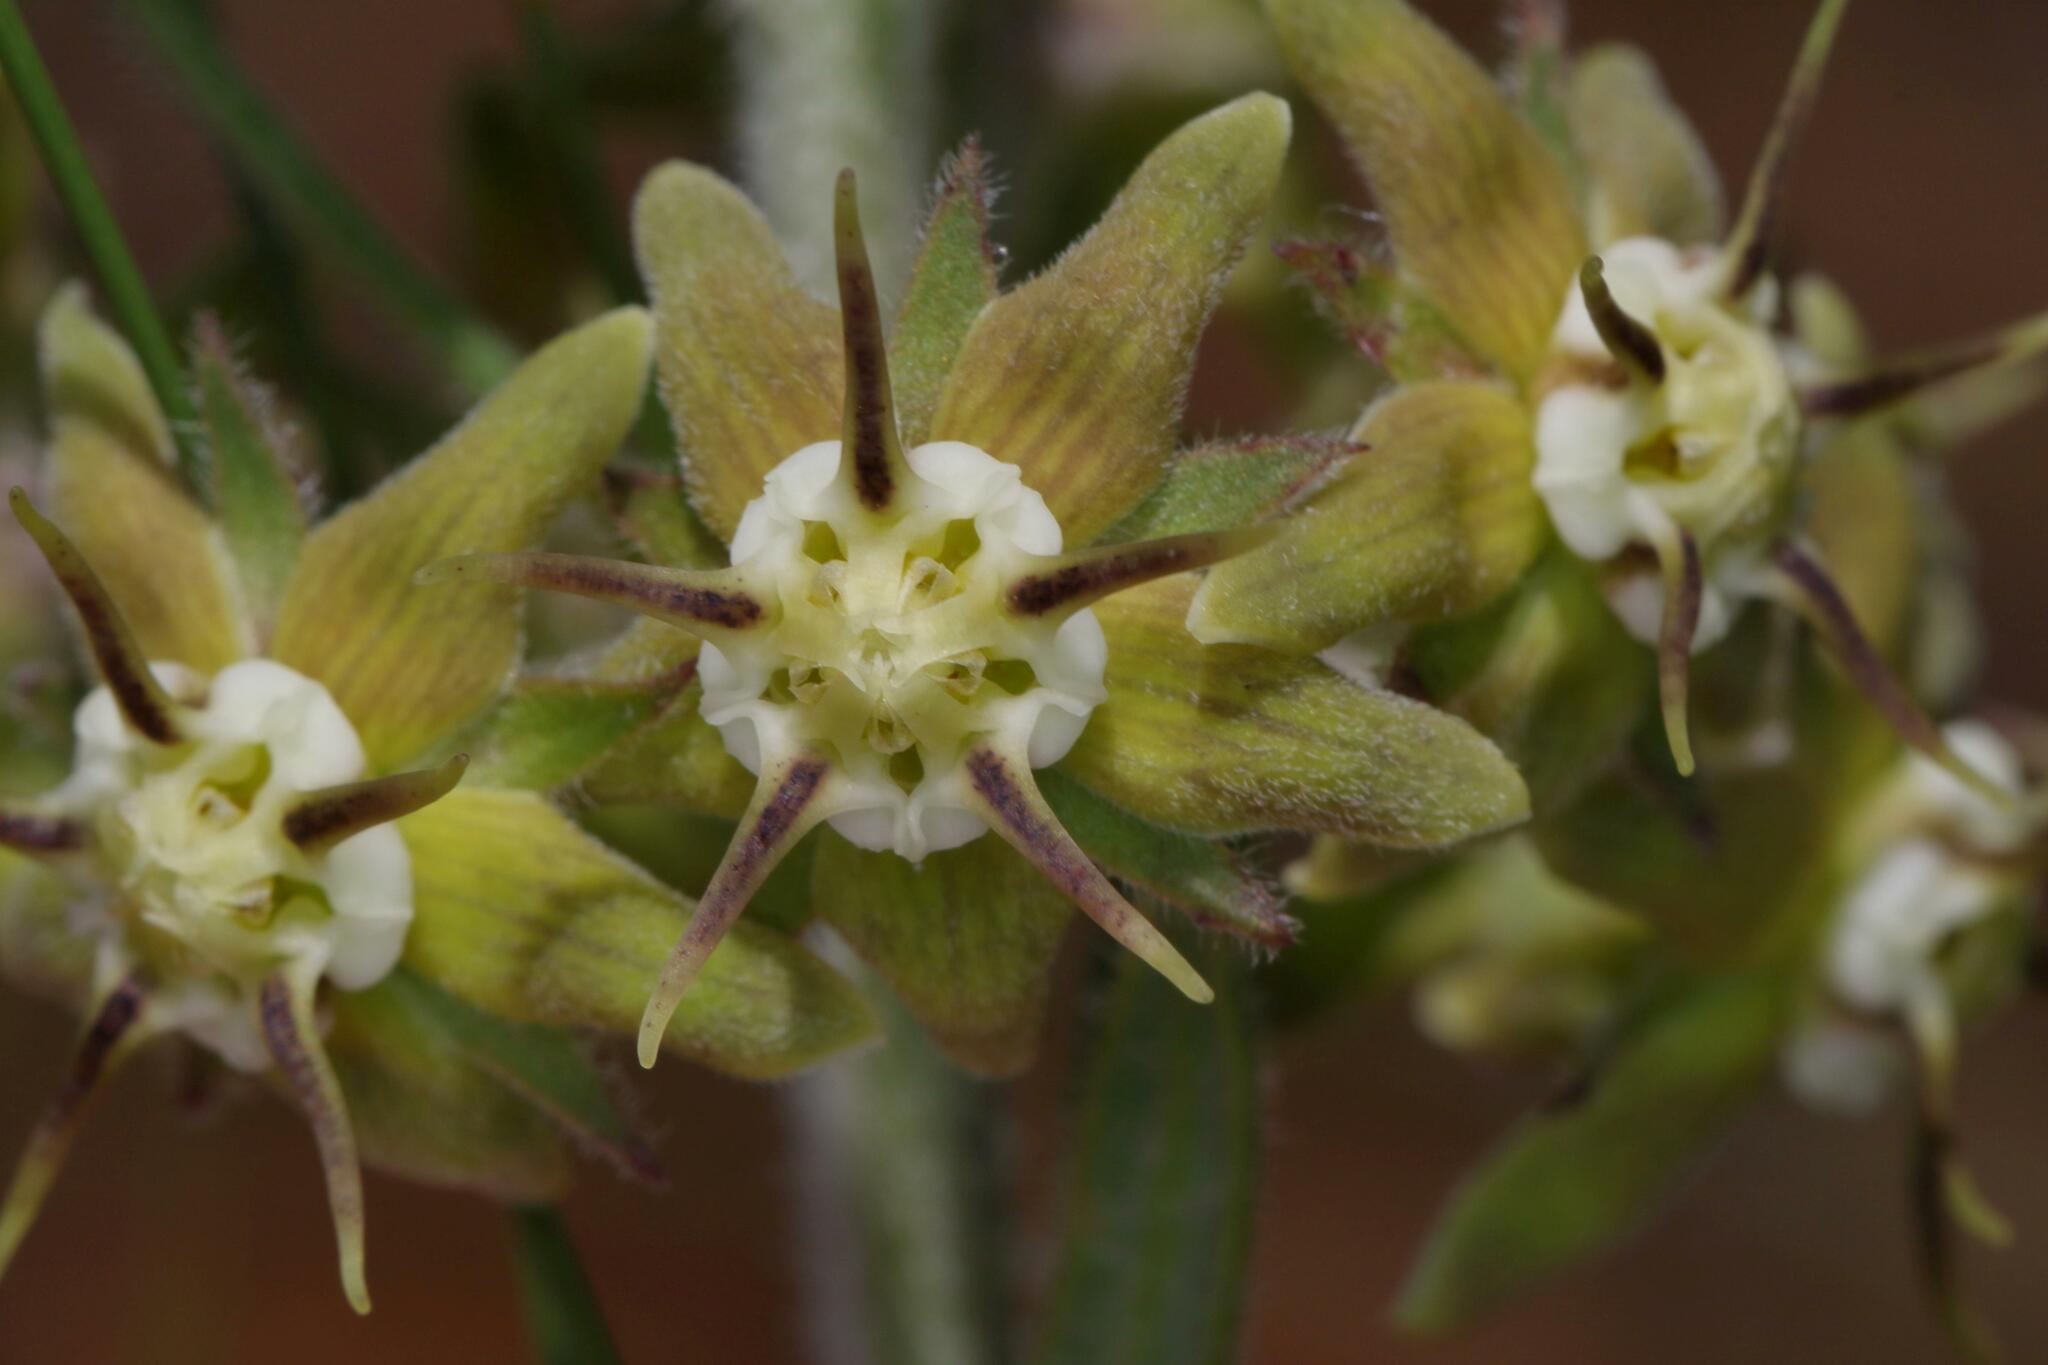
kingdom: Plantae
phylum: Tracheophyta
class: Magnoliopsida
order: Gentianales
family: Apocynaceae
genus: Miraglossum
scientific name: Miraglossum pulchellum
